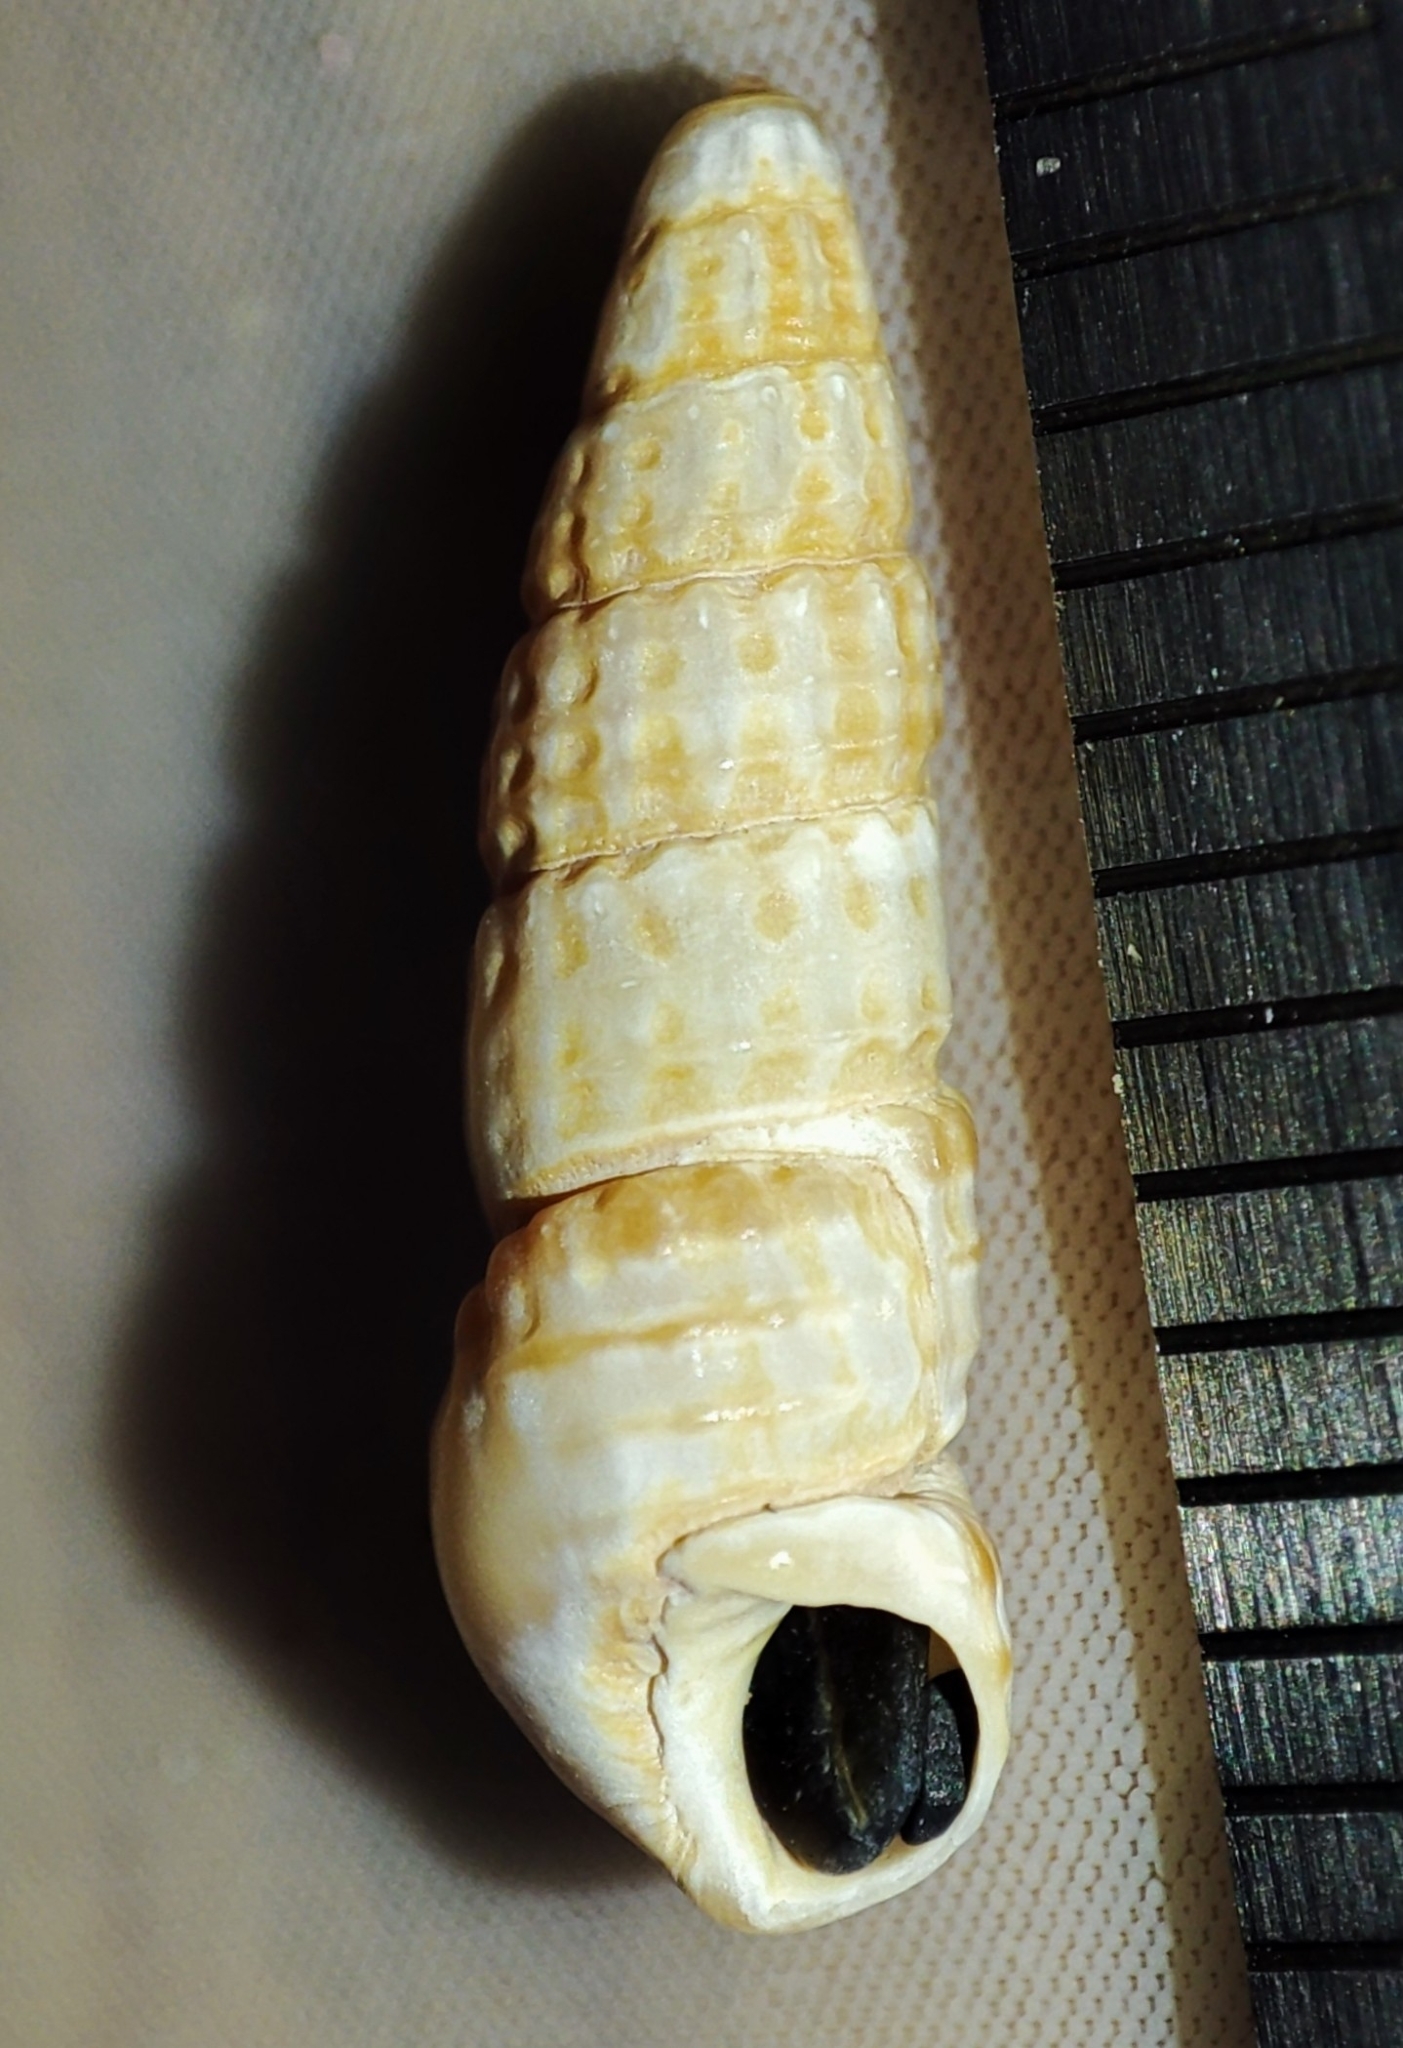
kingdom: Animalia
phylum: Mollusca
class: Gastropoda
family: Cerithiidae
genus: Bittium
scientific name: Bittium reticulatum
